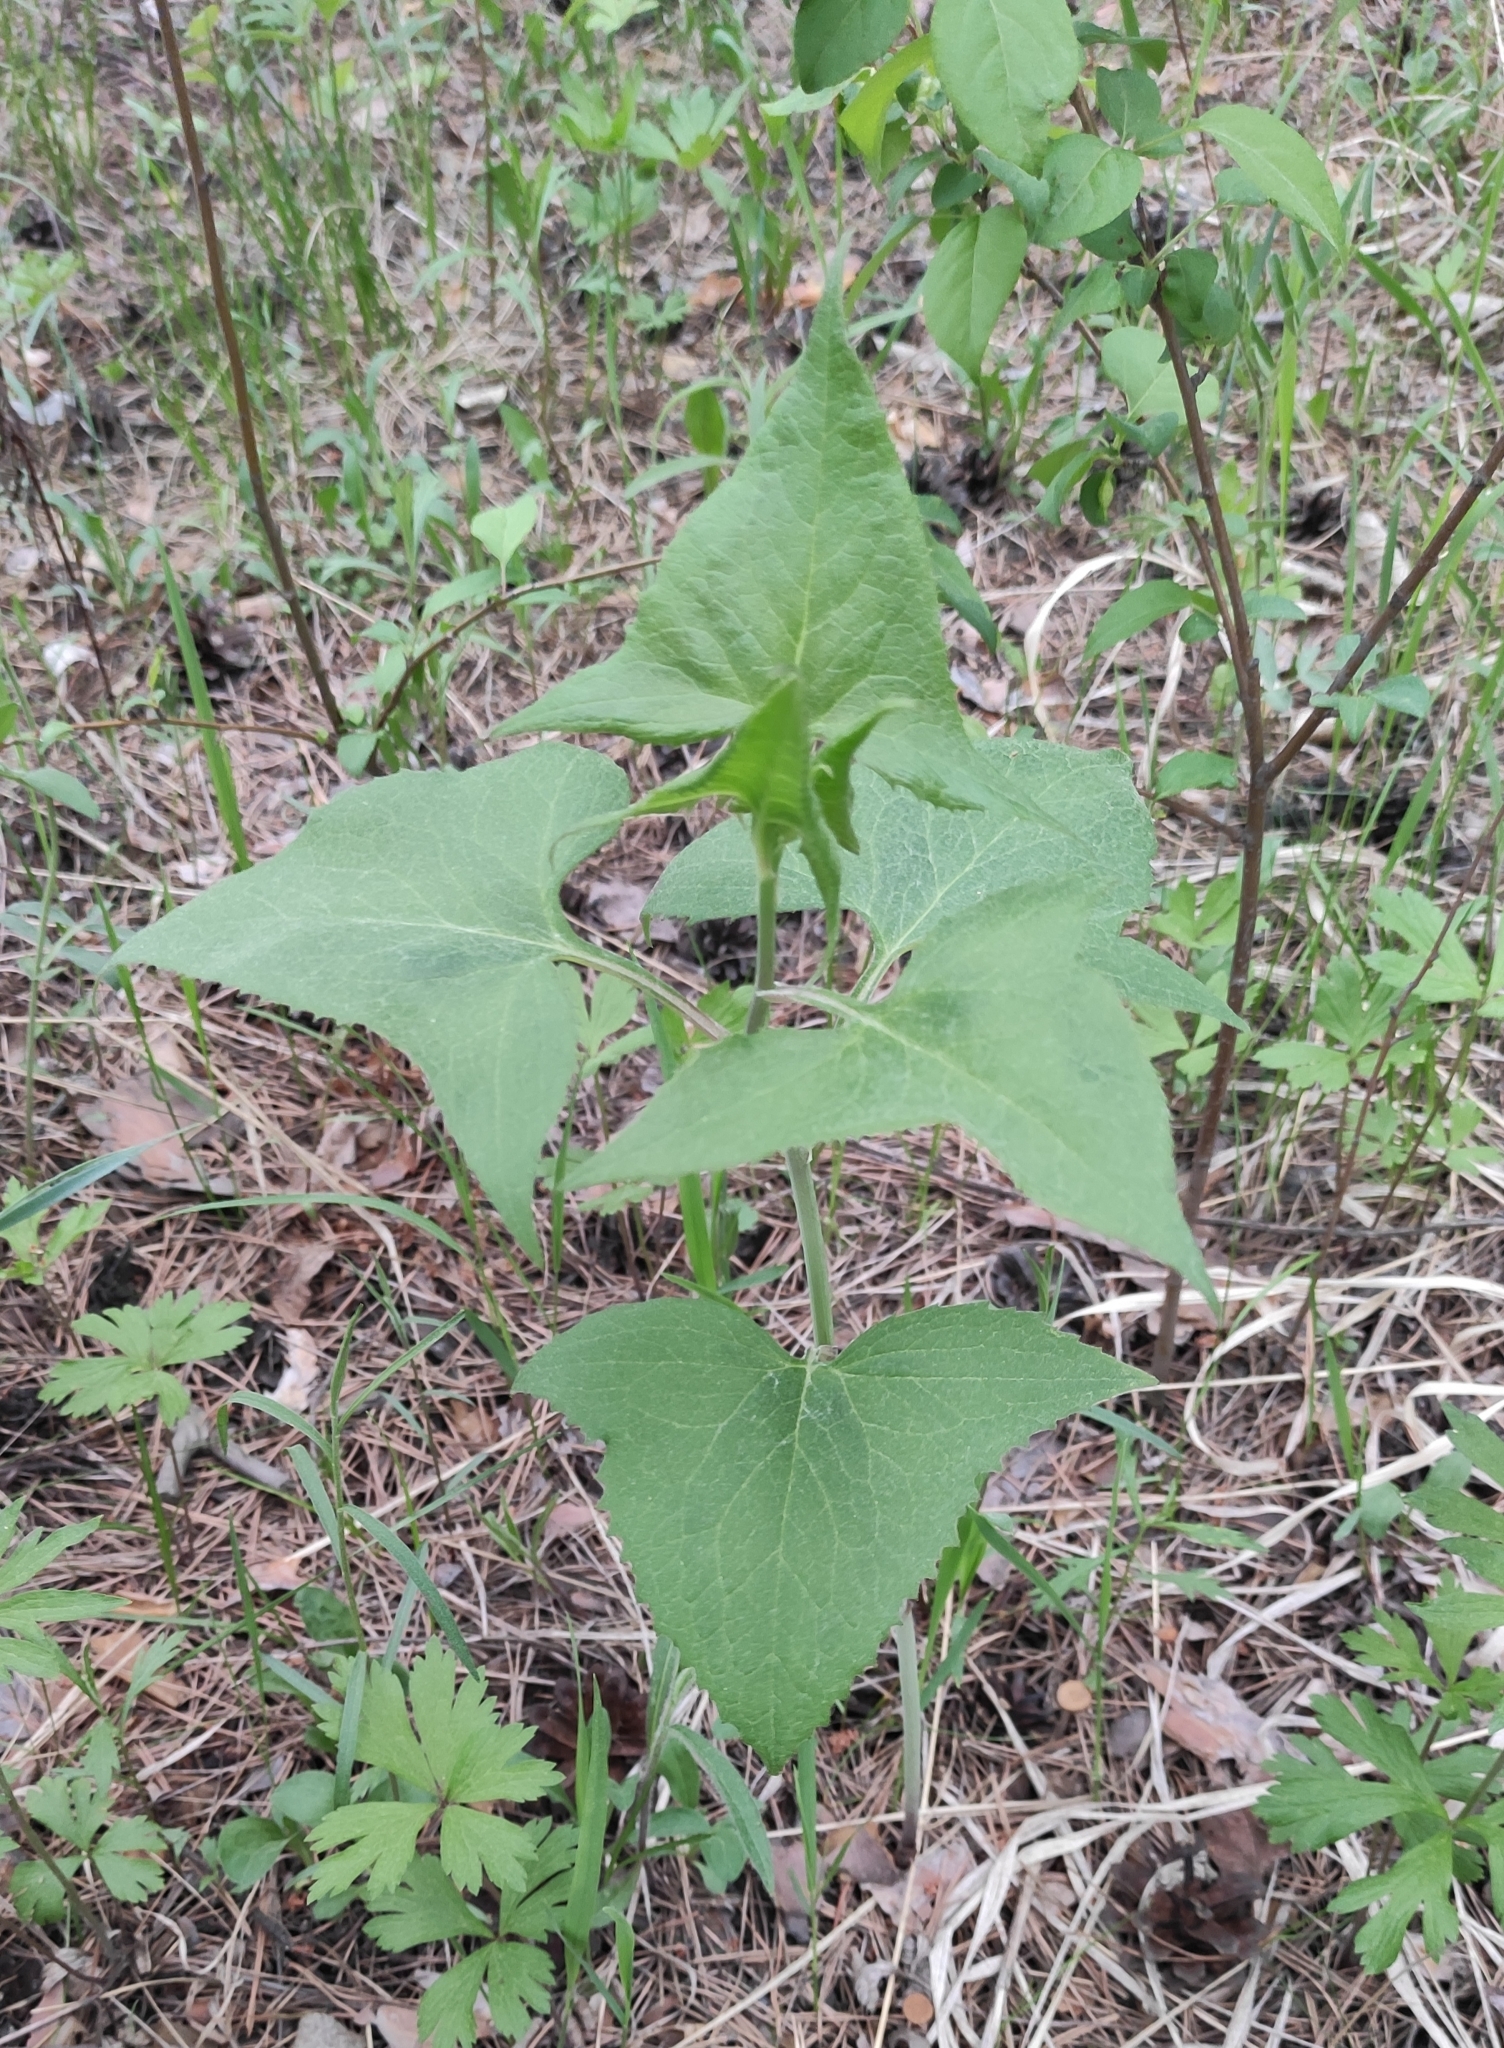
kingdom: Plantae
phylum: Tracheophyta
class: Magnoliopsida
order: Asterales
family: Asteraceae
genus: Parasenecio
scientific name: Parasenecio hastatus
